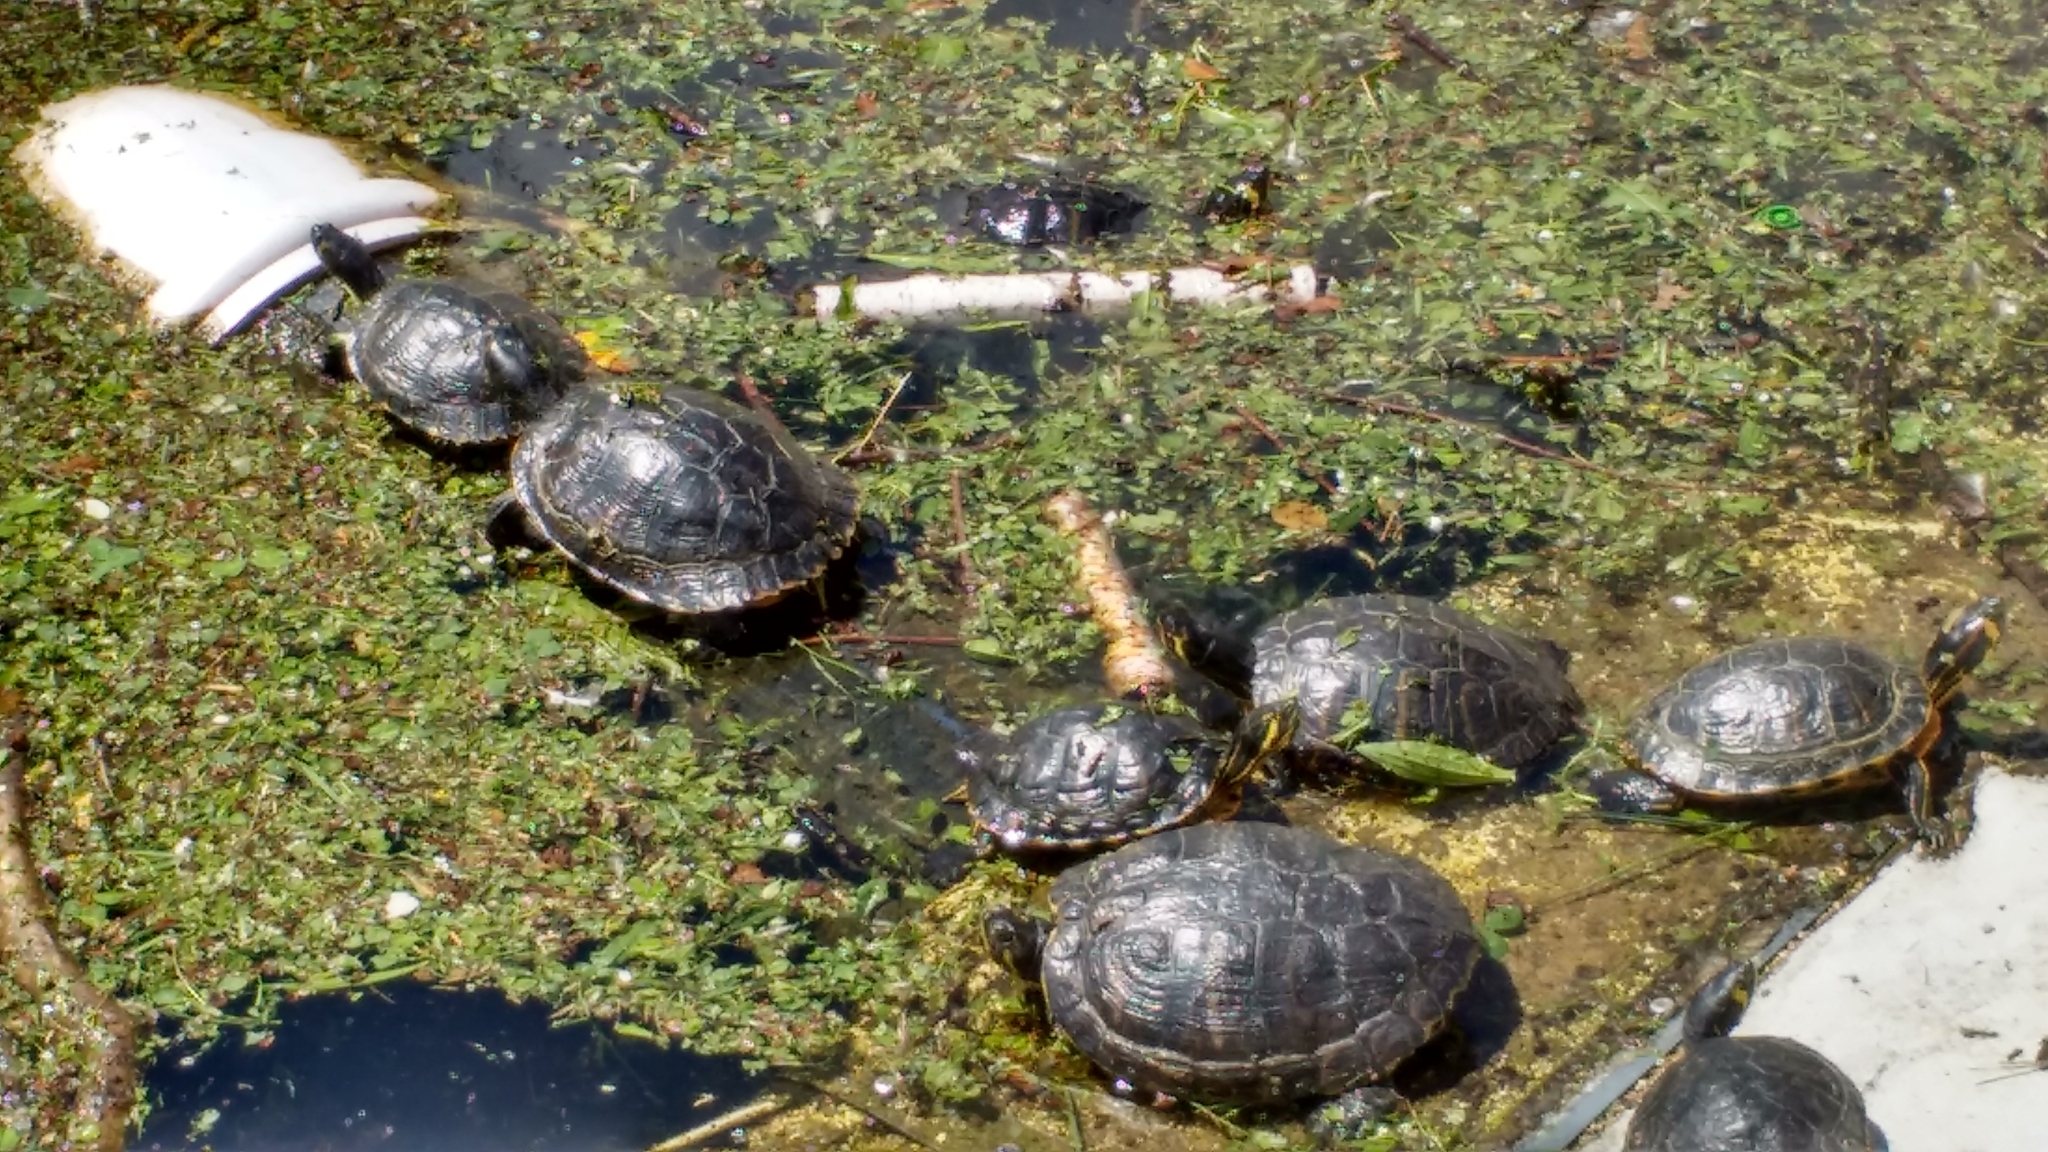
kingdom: Animalia
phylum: Chordata
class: Testudines
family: Emydidae
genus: Trachemys
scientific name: Trachemys scripta
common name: Slider
